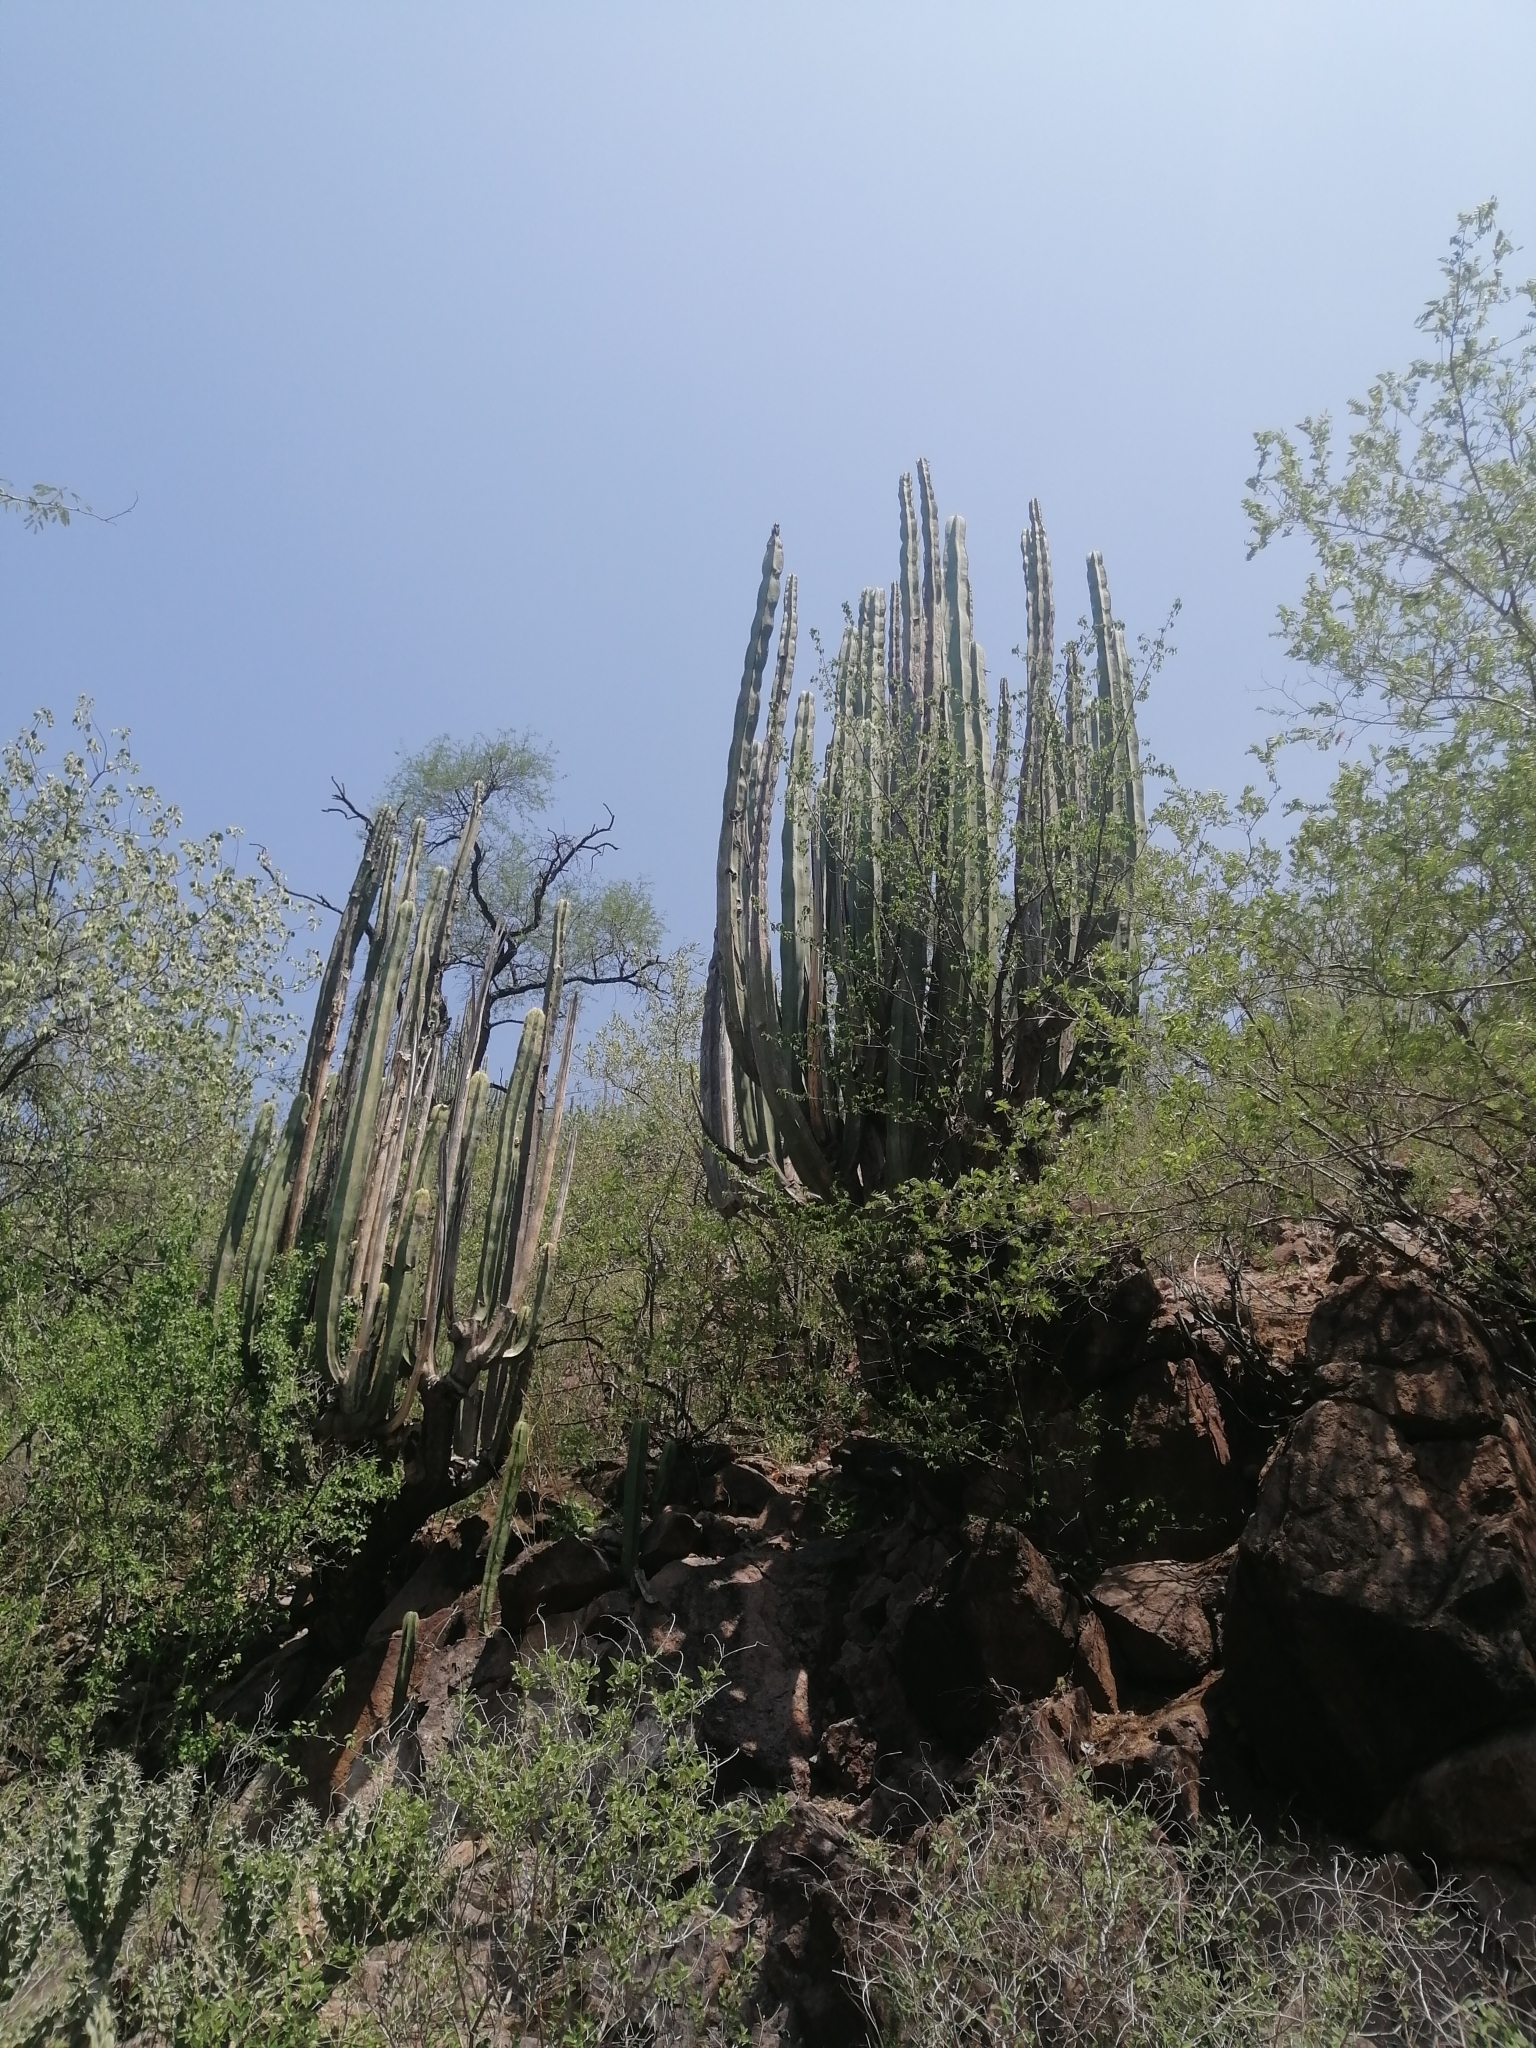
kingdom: Plantae
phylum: Tracheophyta
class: Magnoliopsida
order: Caryophyllales
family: Cactaceae
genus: Stenocereus
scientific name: Stenocereus dumortieri
